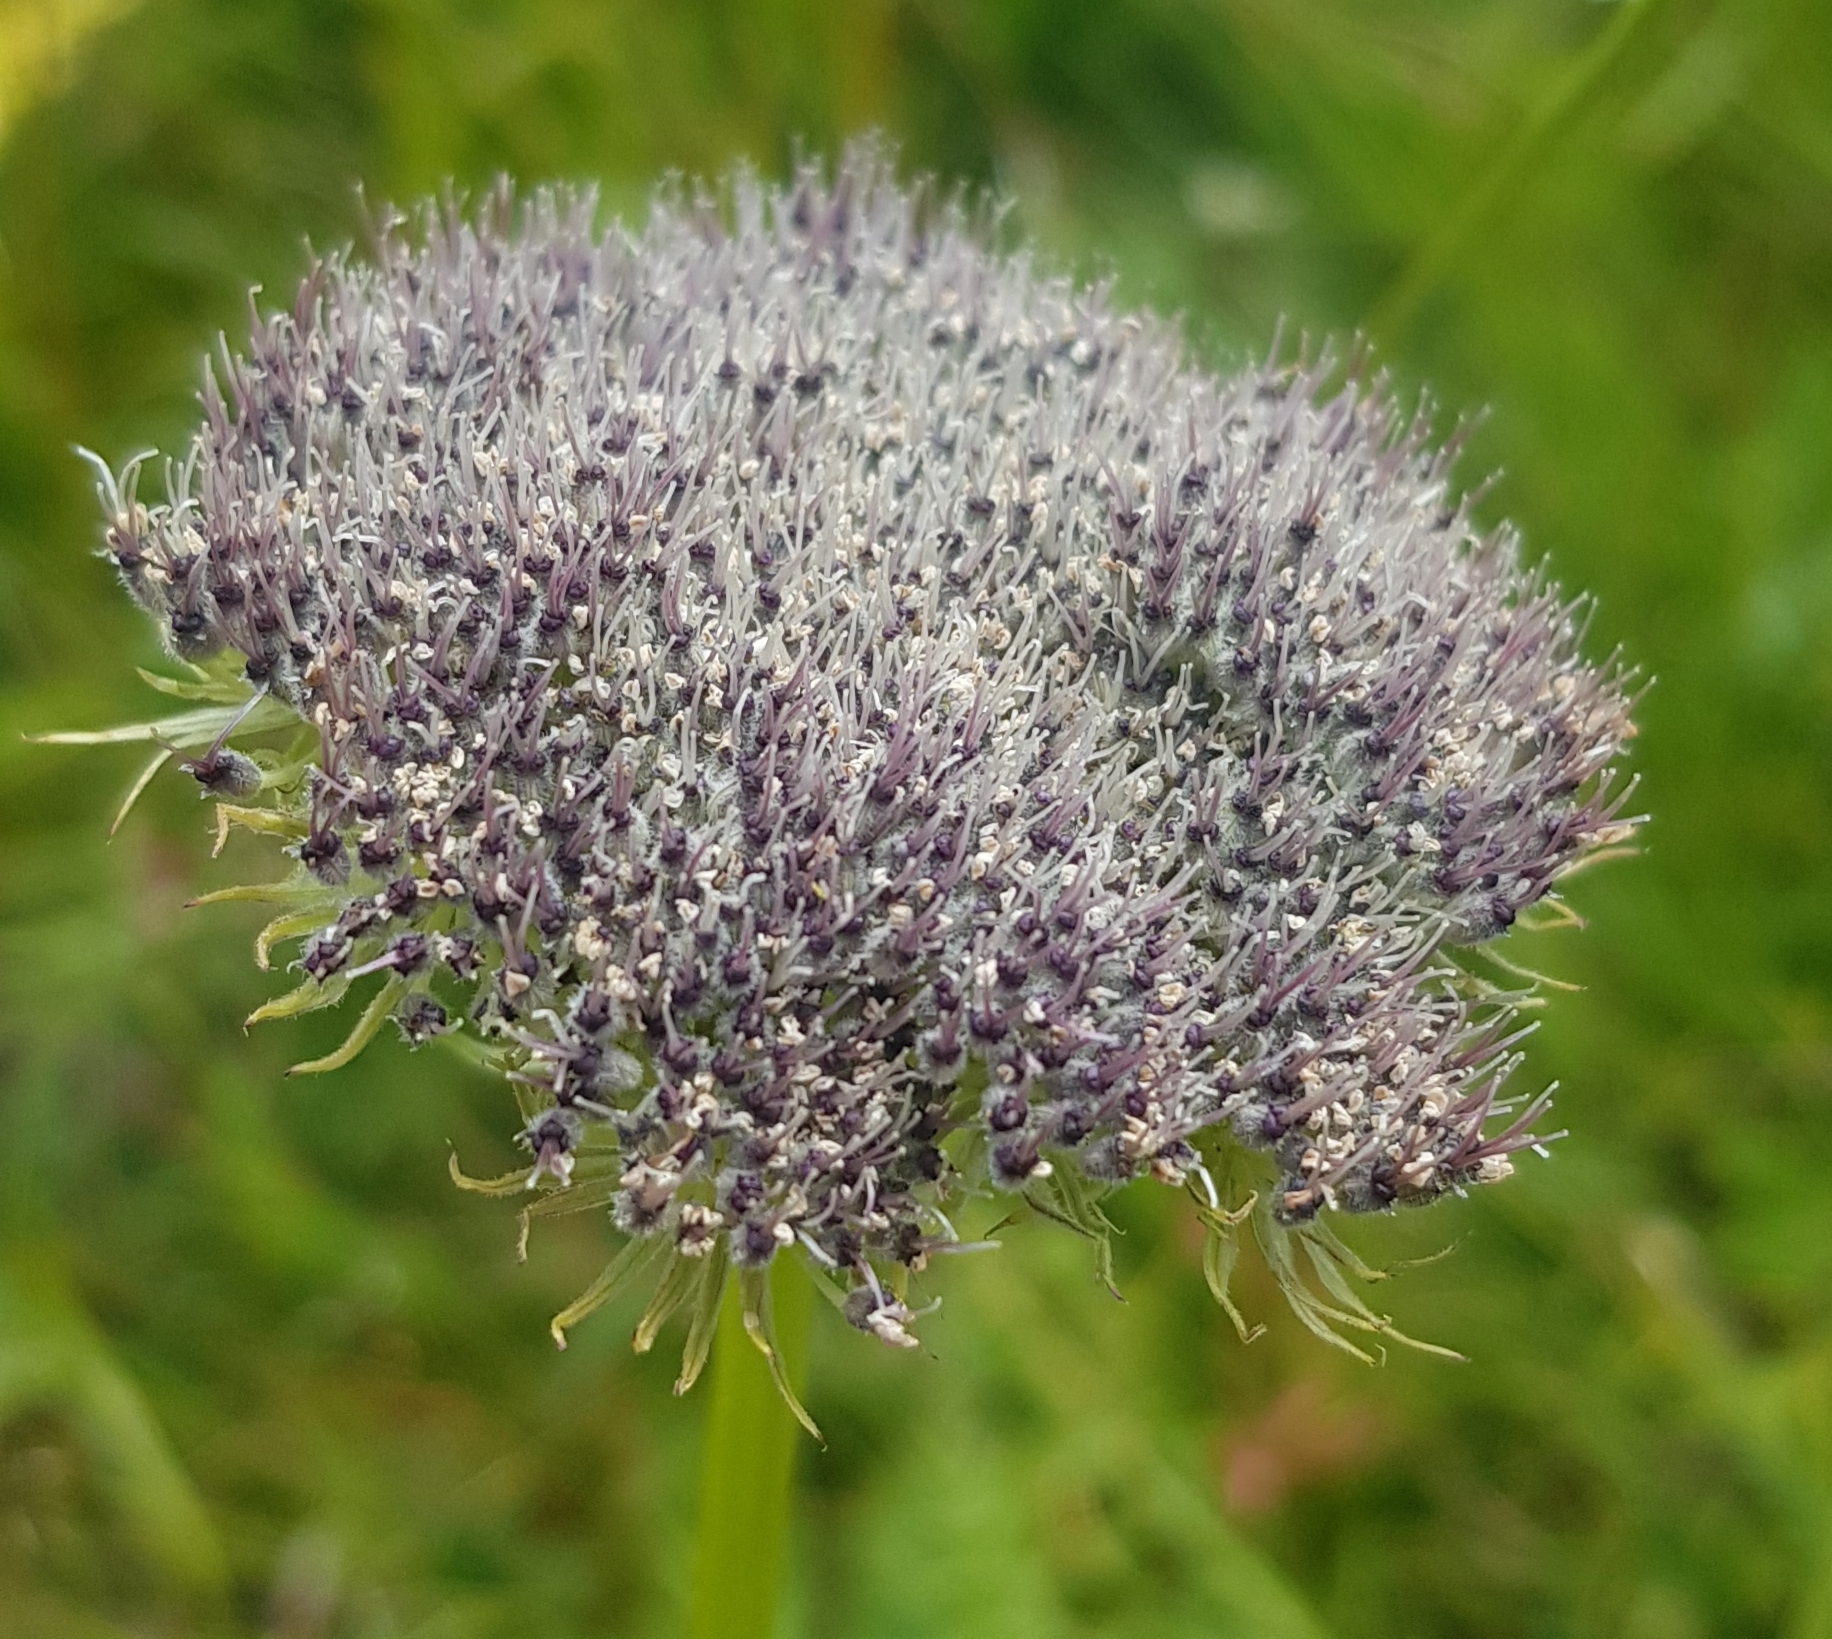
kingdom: Plantae
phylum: Tracheophyta
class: Magnoliopsida
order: Apiales
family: Apiaceae
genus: Seseli
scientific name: Seseli seseloides
